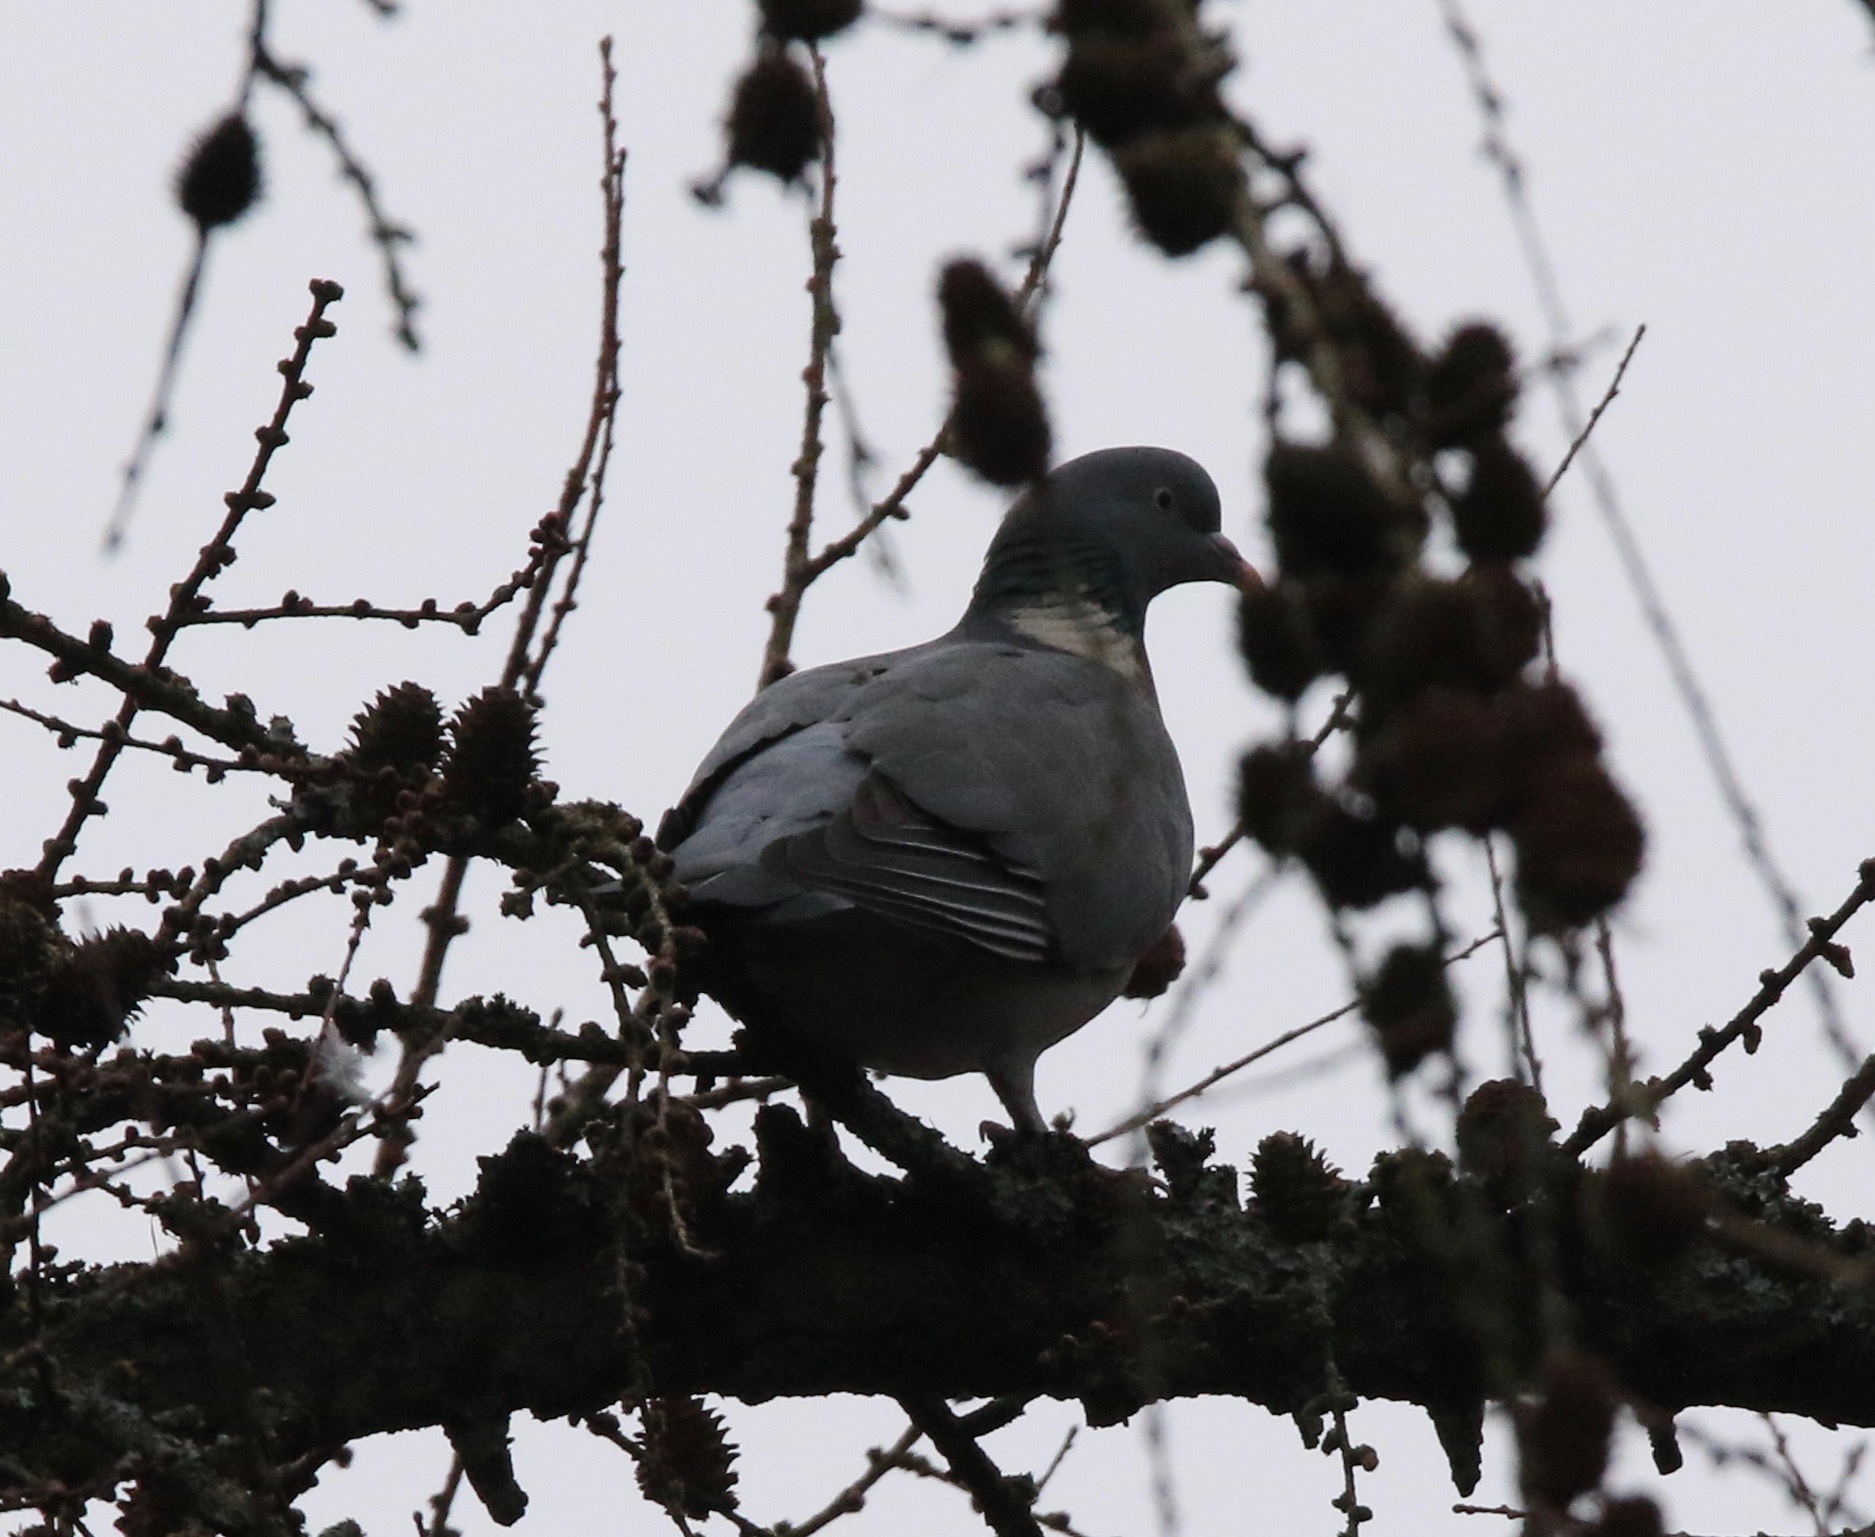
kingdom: Animalia
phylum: Chordata
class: Aves
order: Columbiformes
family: Columbidae
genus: Columba
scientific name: Columba palumbus
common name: Common wood pigeon
